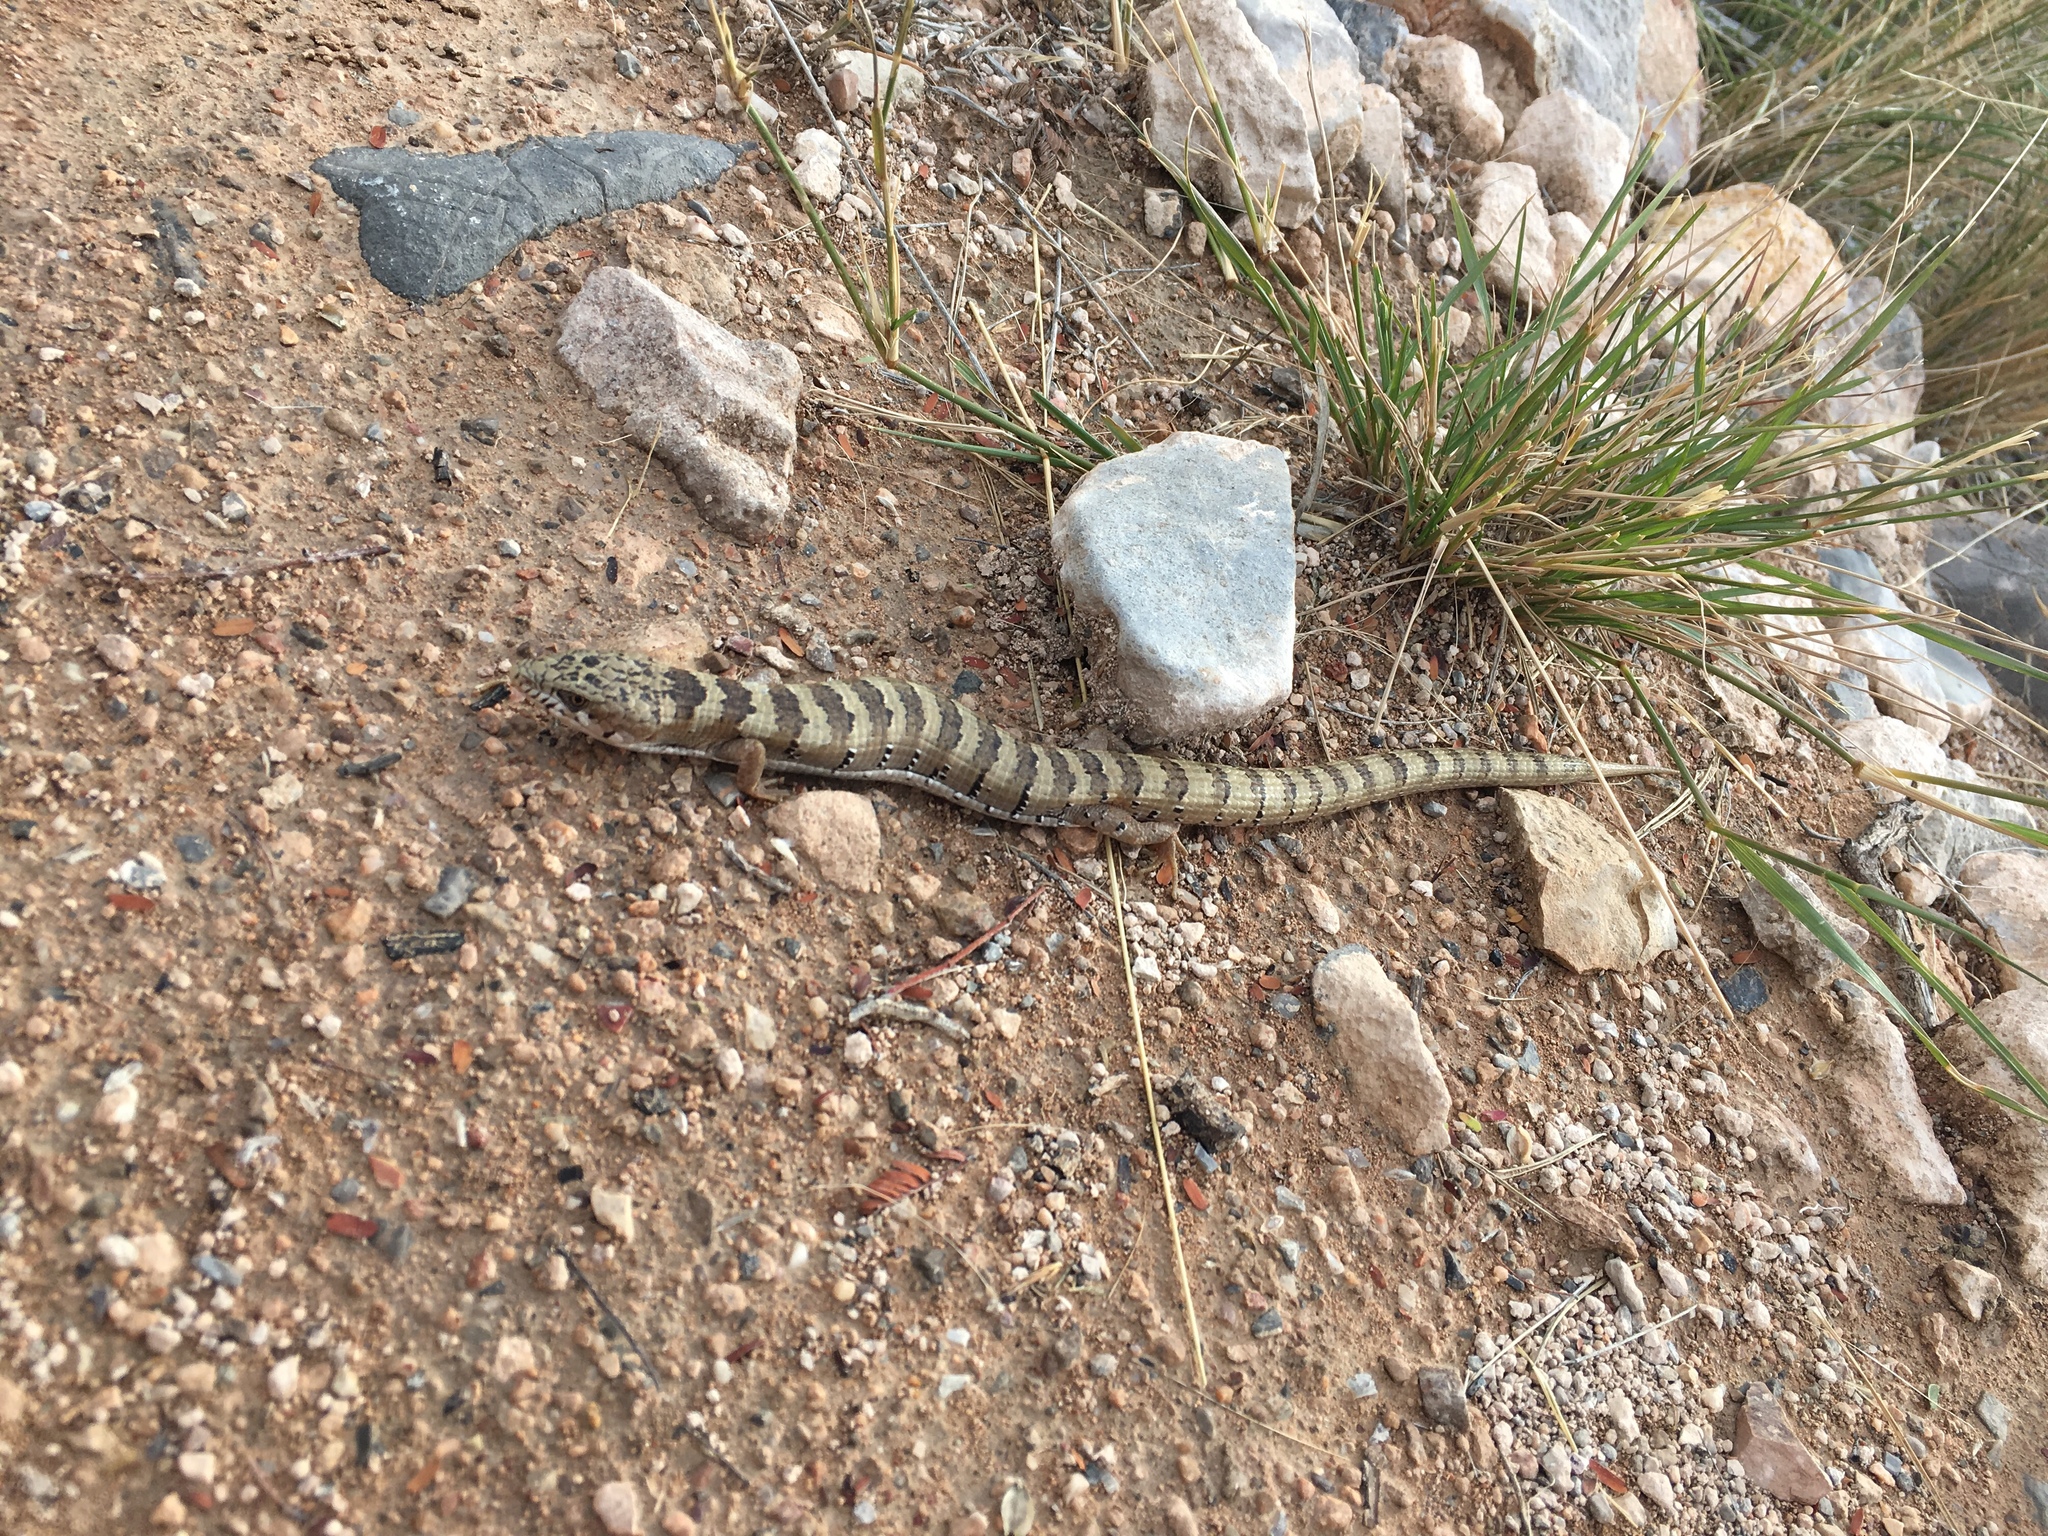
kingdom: Animalia
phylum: Chordata
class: Squamata
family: Anguidae
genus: Elgaria
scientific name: Elgaria kingii
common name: Madrean alligator lizard
